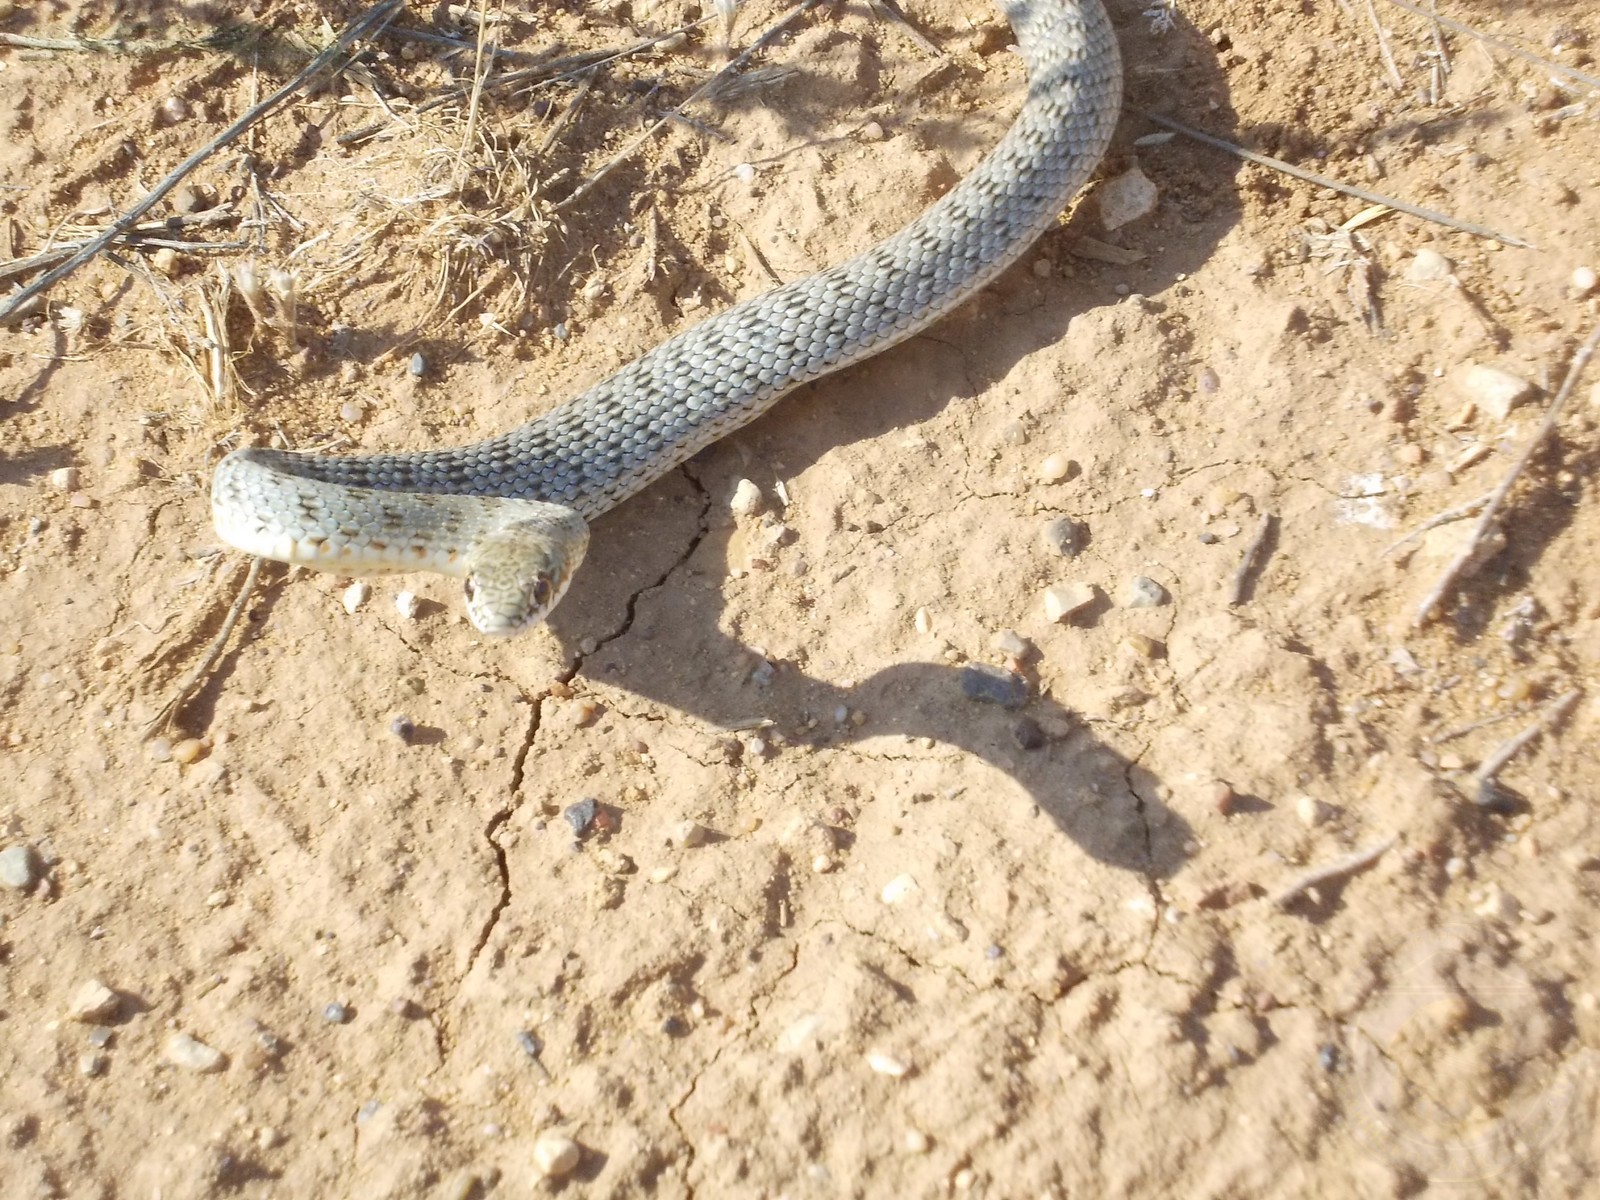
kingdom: Animalia
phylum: Chordata
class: Squamata
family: Colubridae
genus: Dolichophis
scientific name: Dolichophis caspius
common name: Large whip snake
